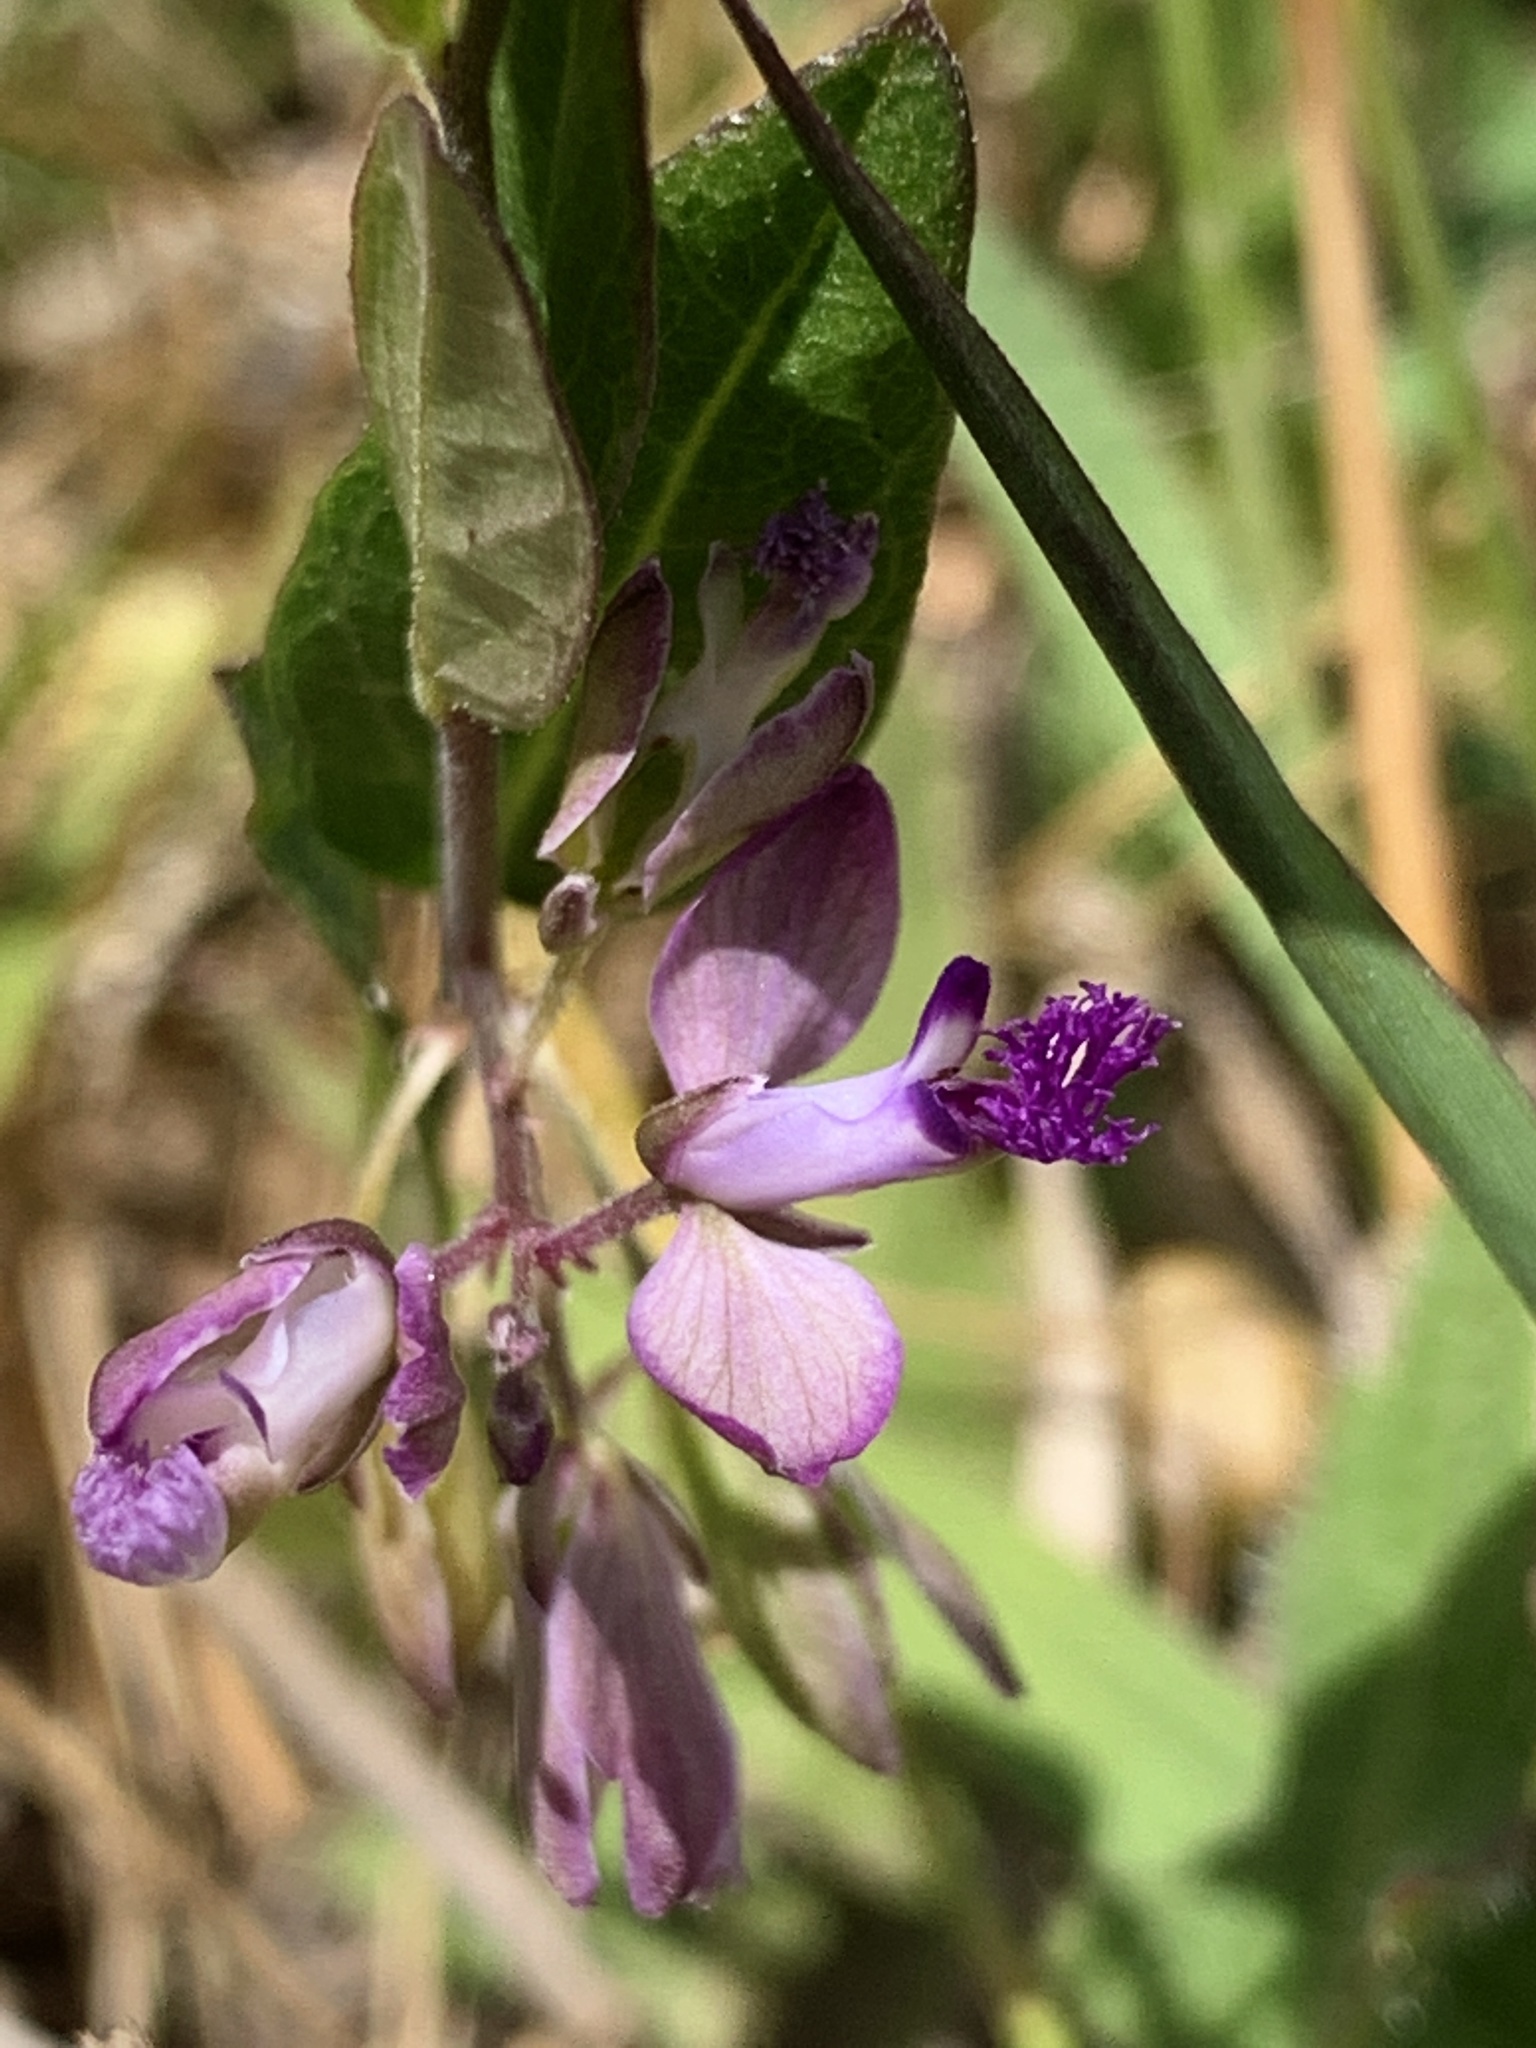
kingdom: Plantae
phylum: Tracheophyta
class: Magnoliopsida
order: Fabales
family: Polygalaceae
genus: Polygala
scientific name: Polygala japonica
